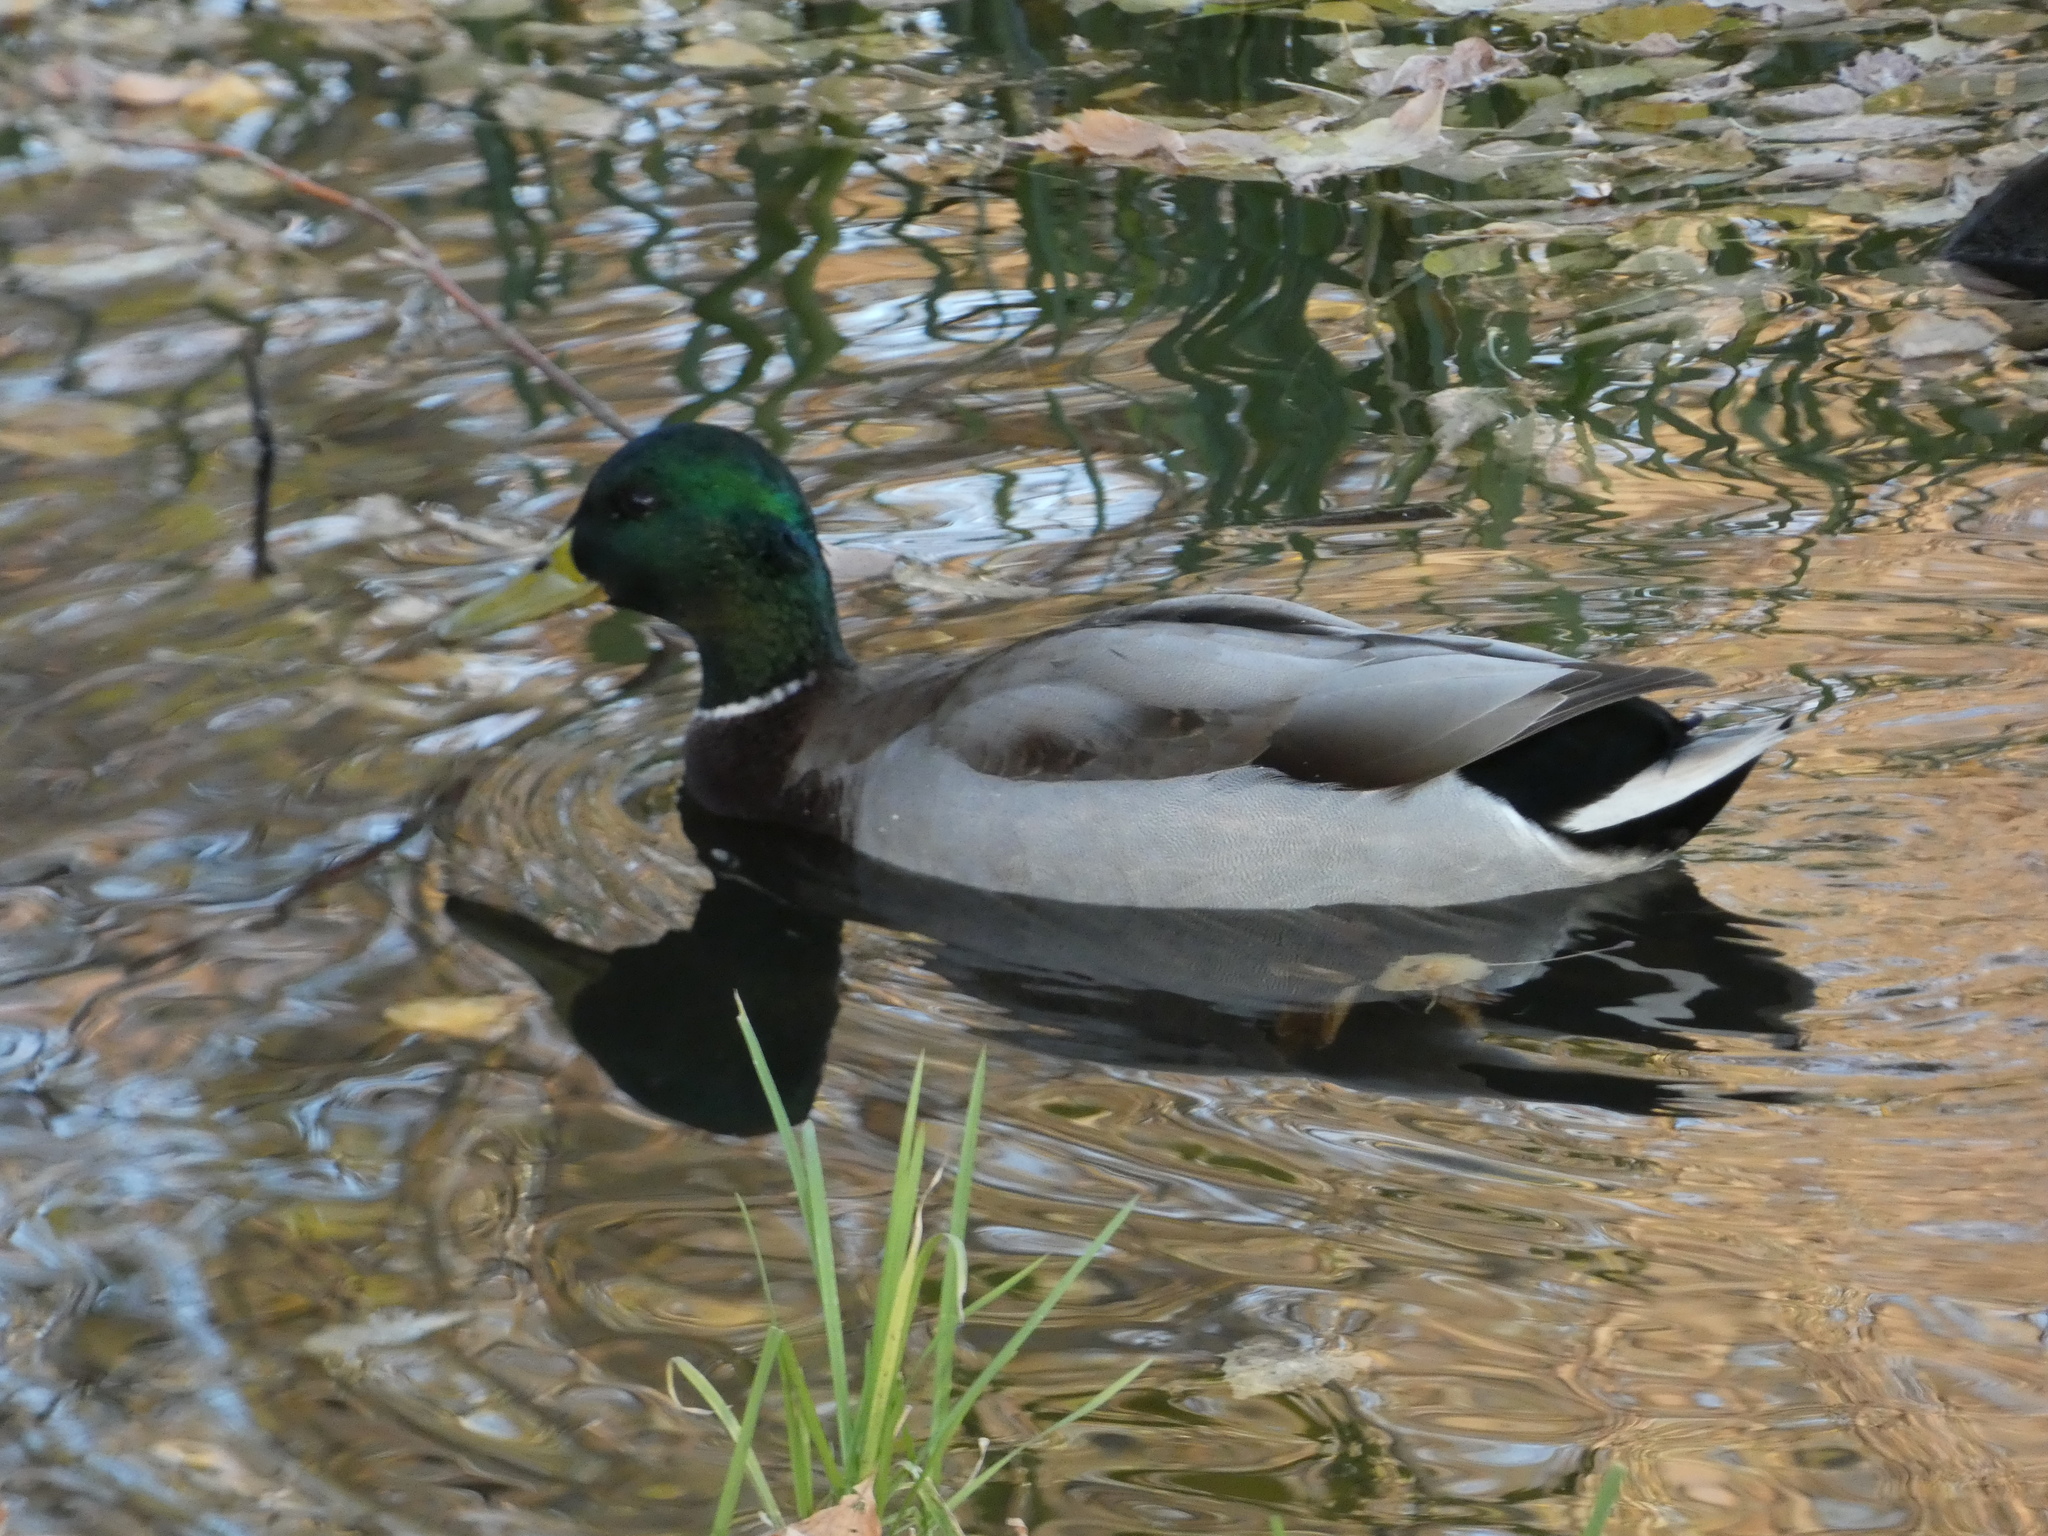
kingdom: Animalia
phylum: Chordata
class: Aves
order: Anseriformes
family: Anatidae
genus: Anas
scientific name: Anas platyrhynchos
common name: Mallard
